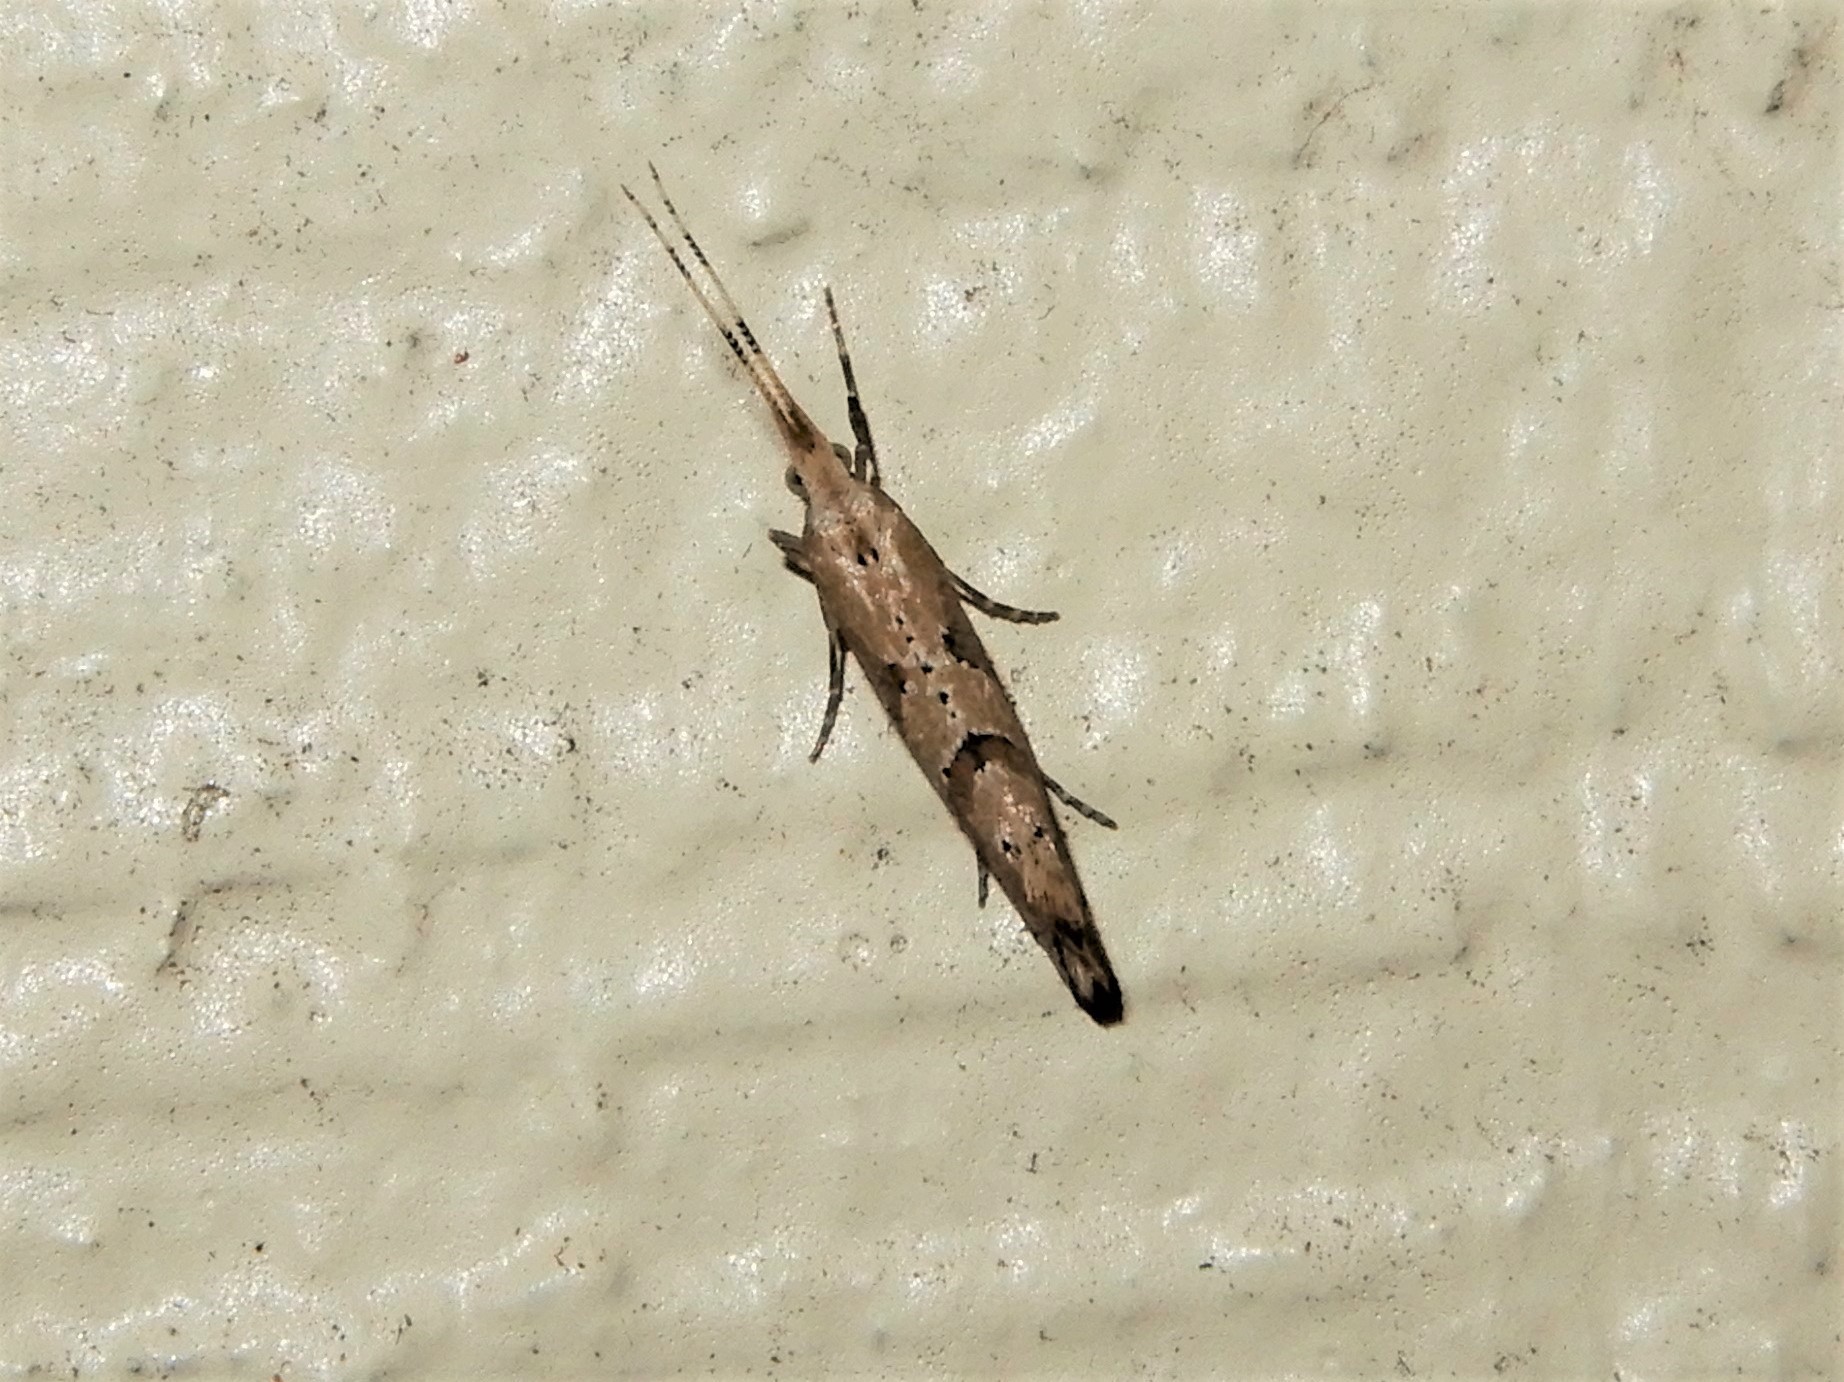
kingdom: Animalia
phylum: Arthropoda
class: Insecta
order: Lepidoptera
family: Plutellidae
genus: Leuroperna
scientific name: Leuroperna sera
